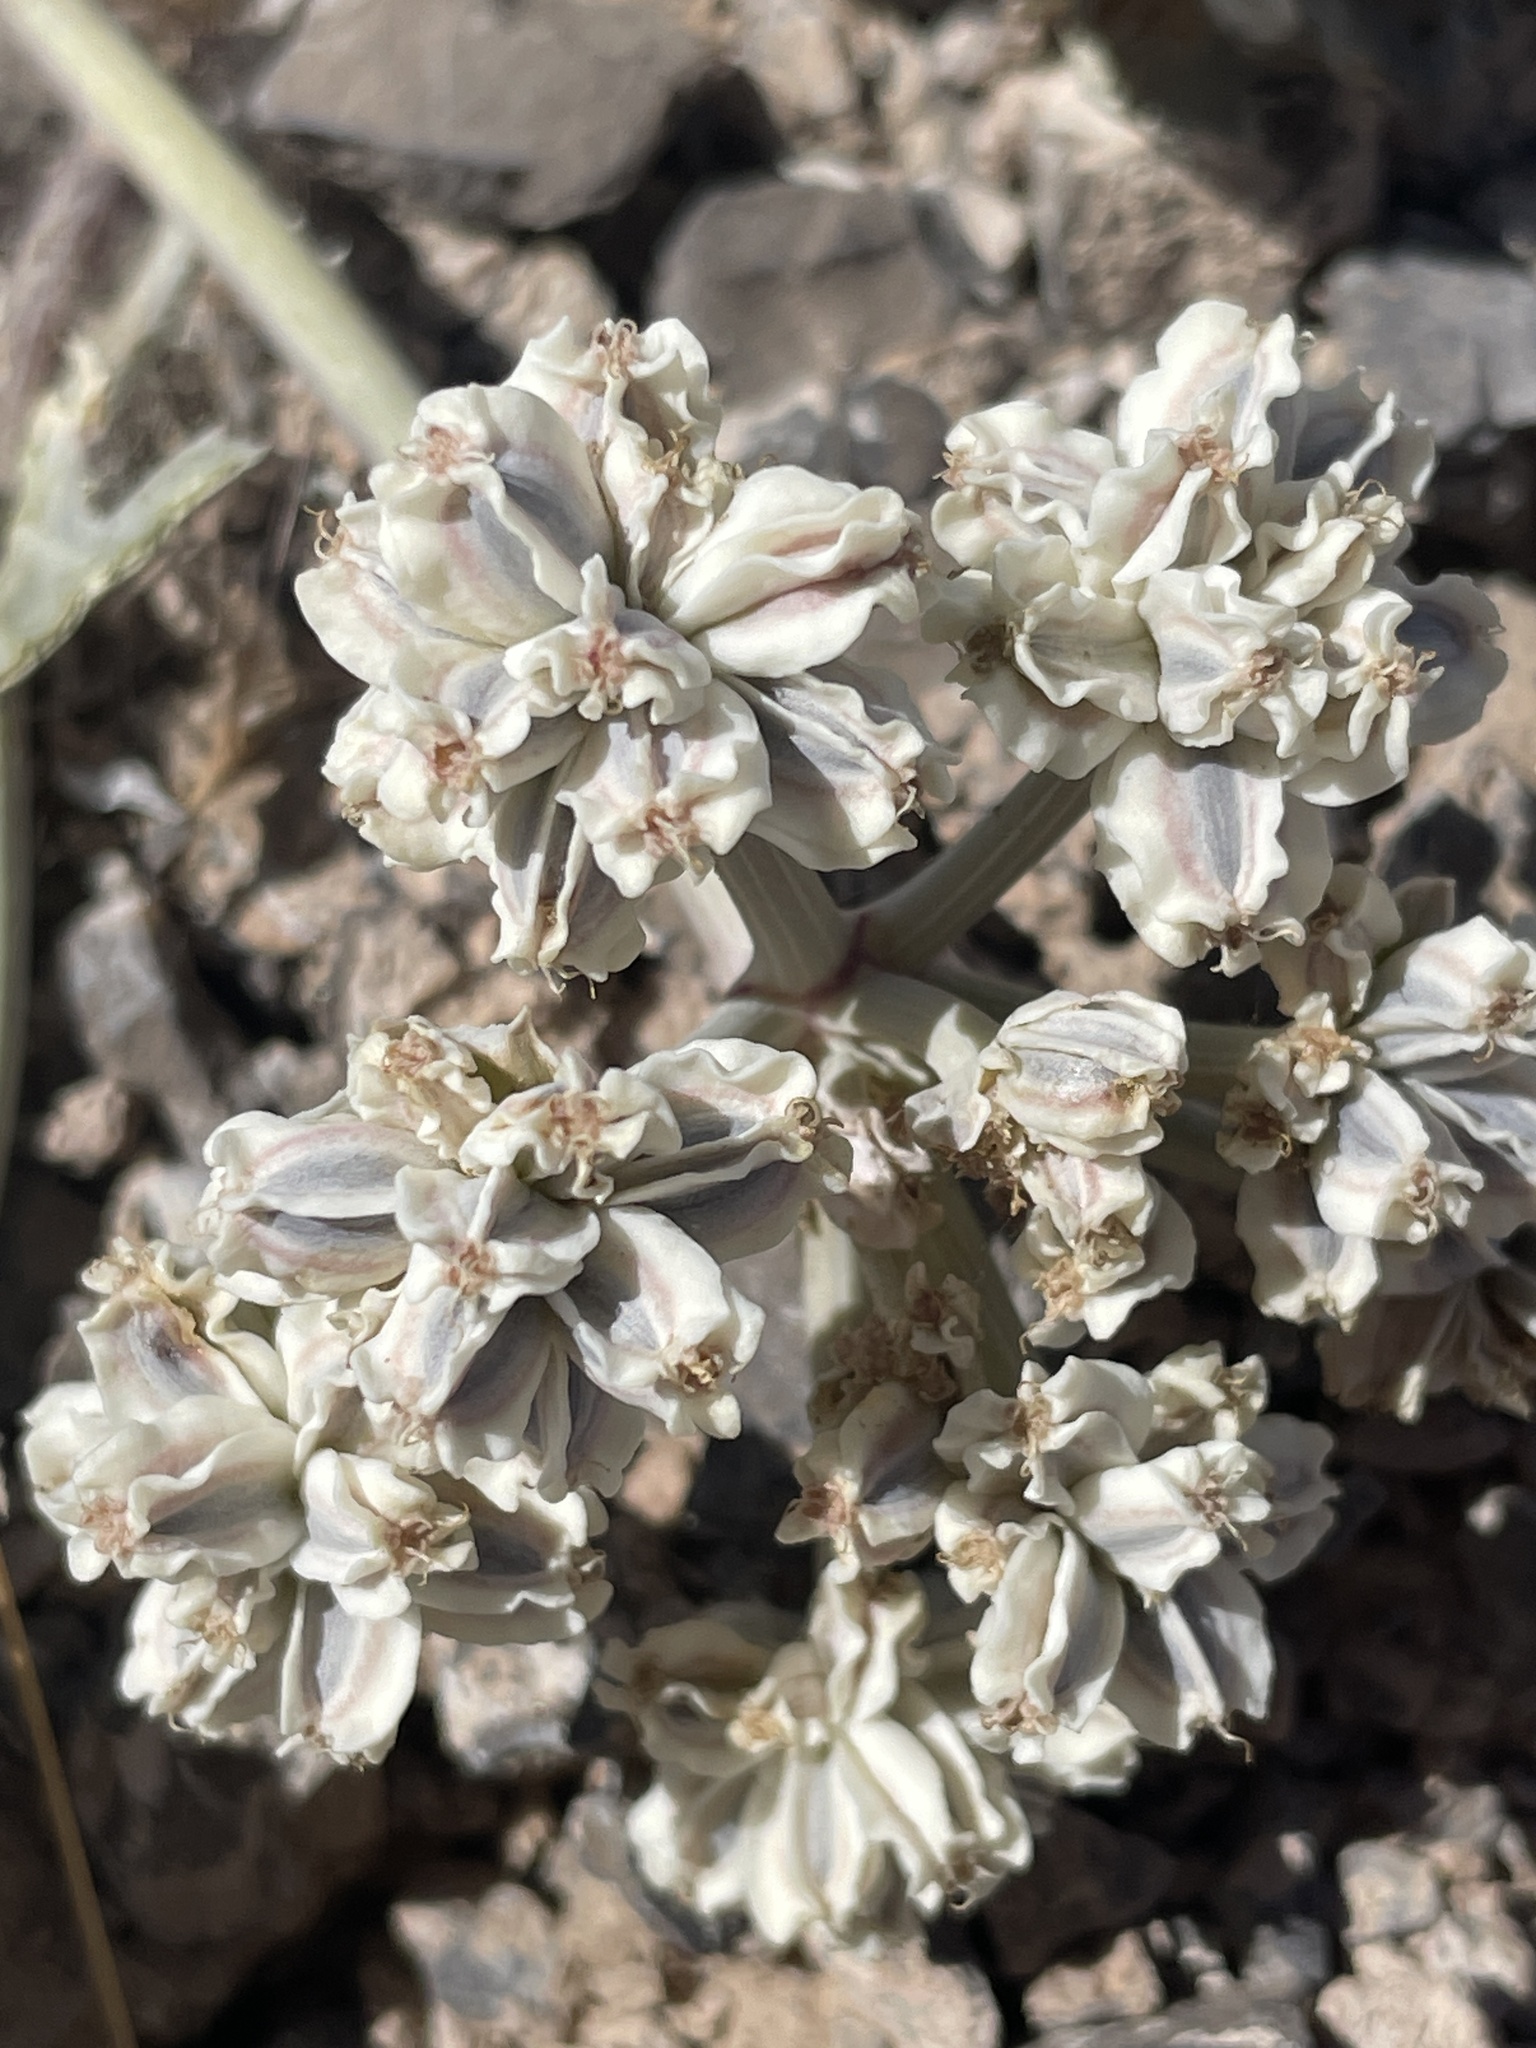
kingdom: Plantae
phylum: Tracheophyta
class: Magnoliopsida
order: Apiales
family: Apiaceae
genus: Aulospermum
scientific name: Aulospermum basalticum
